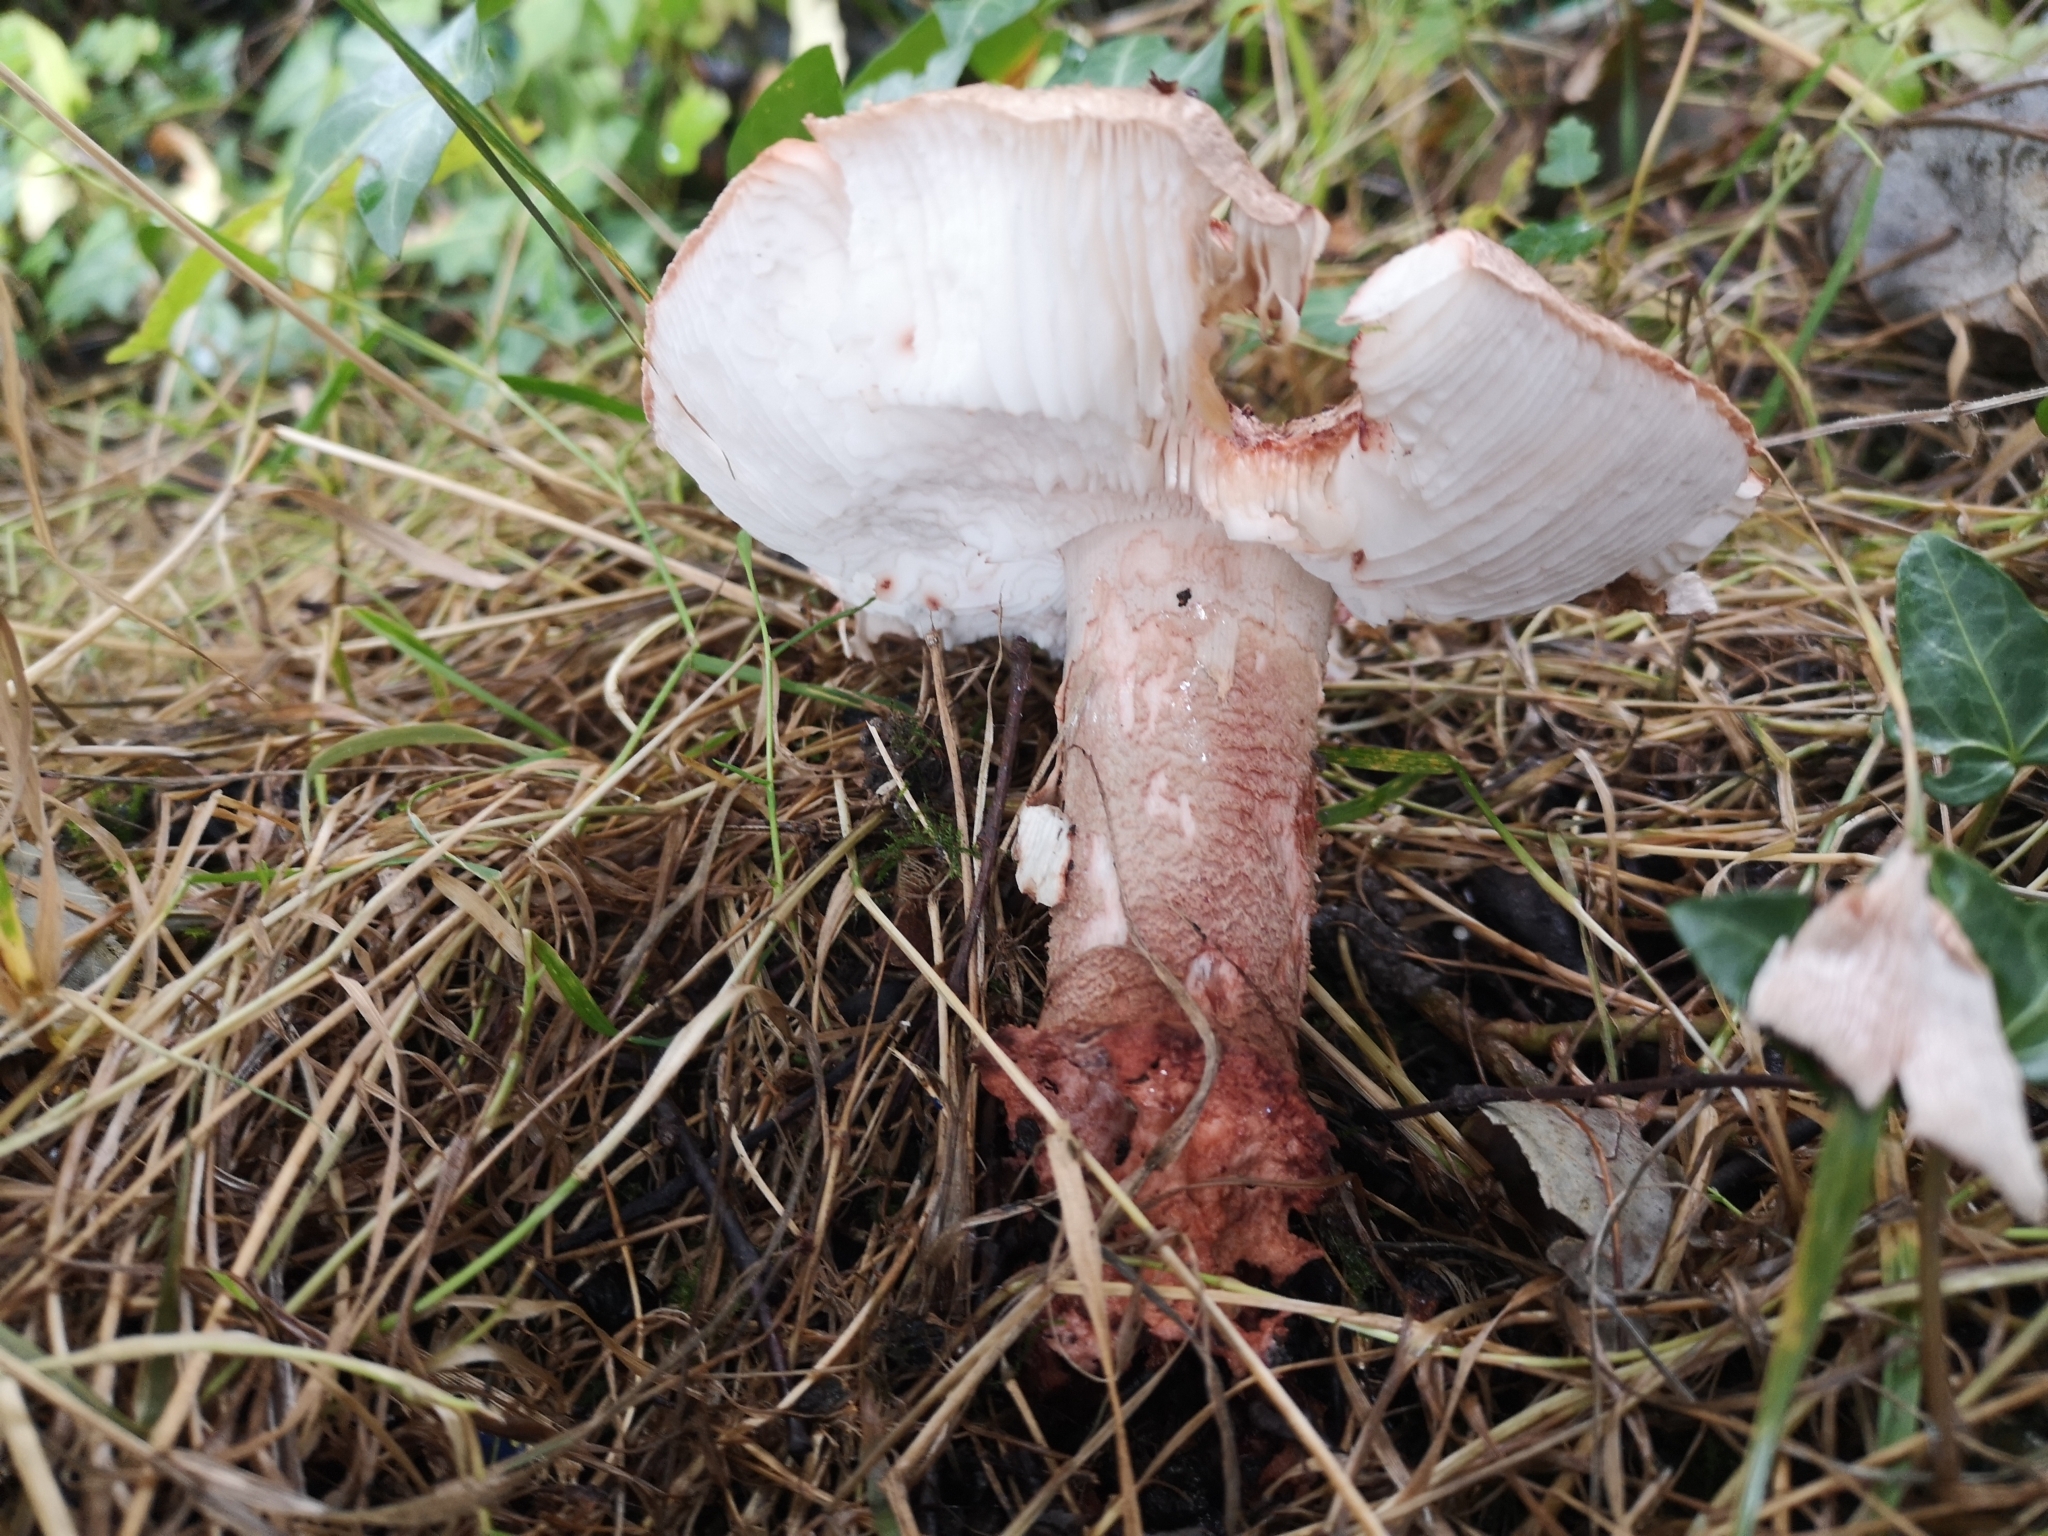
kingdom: Fungi
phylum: Basidiomycota
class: Agaricomycetes
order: Agaricales
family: Amanitaceae
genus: Amanita
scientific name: Amanita rubescens
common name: Blusher
